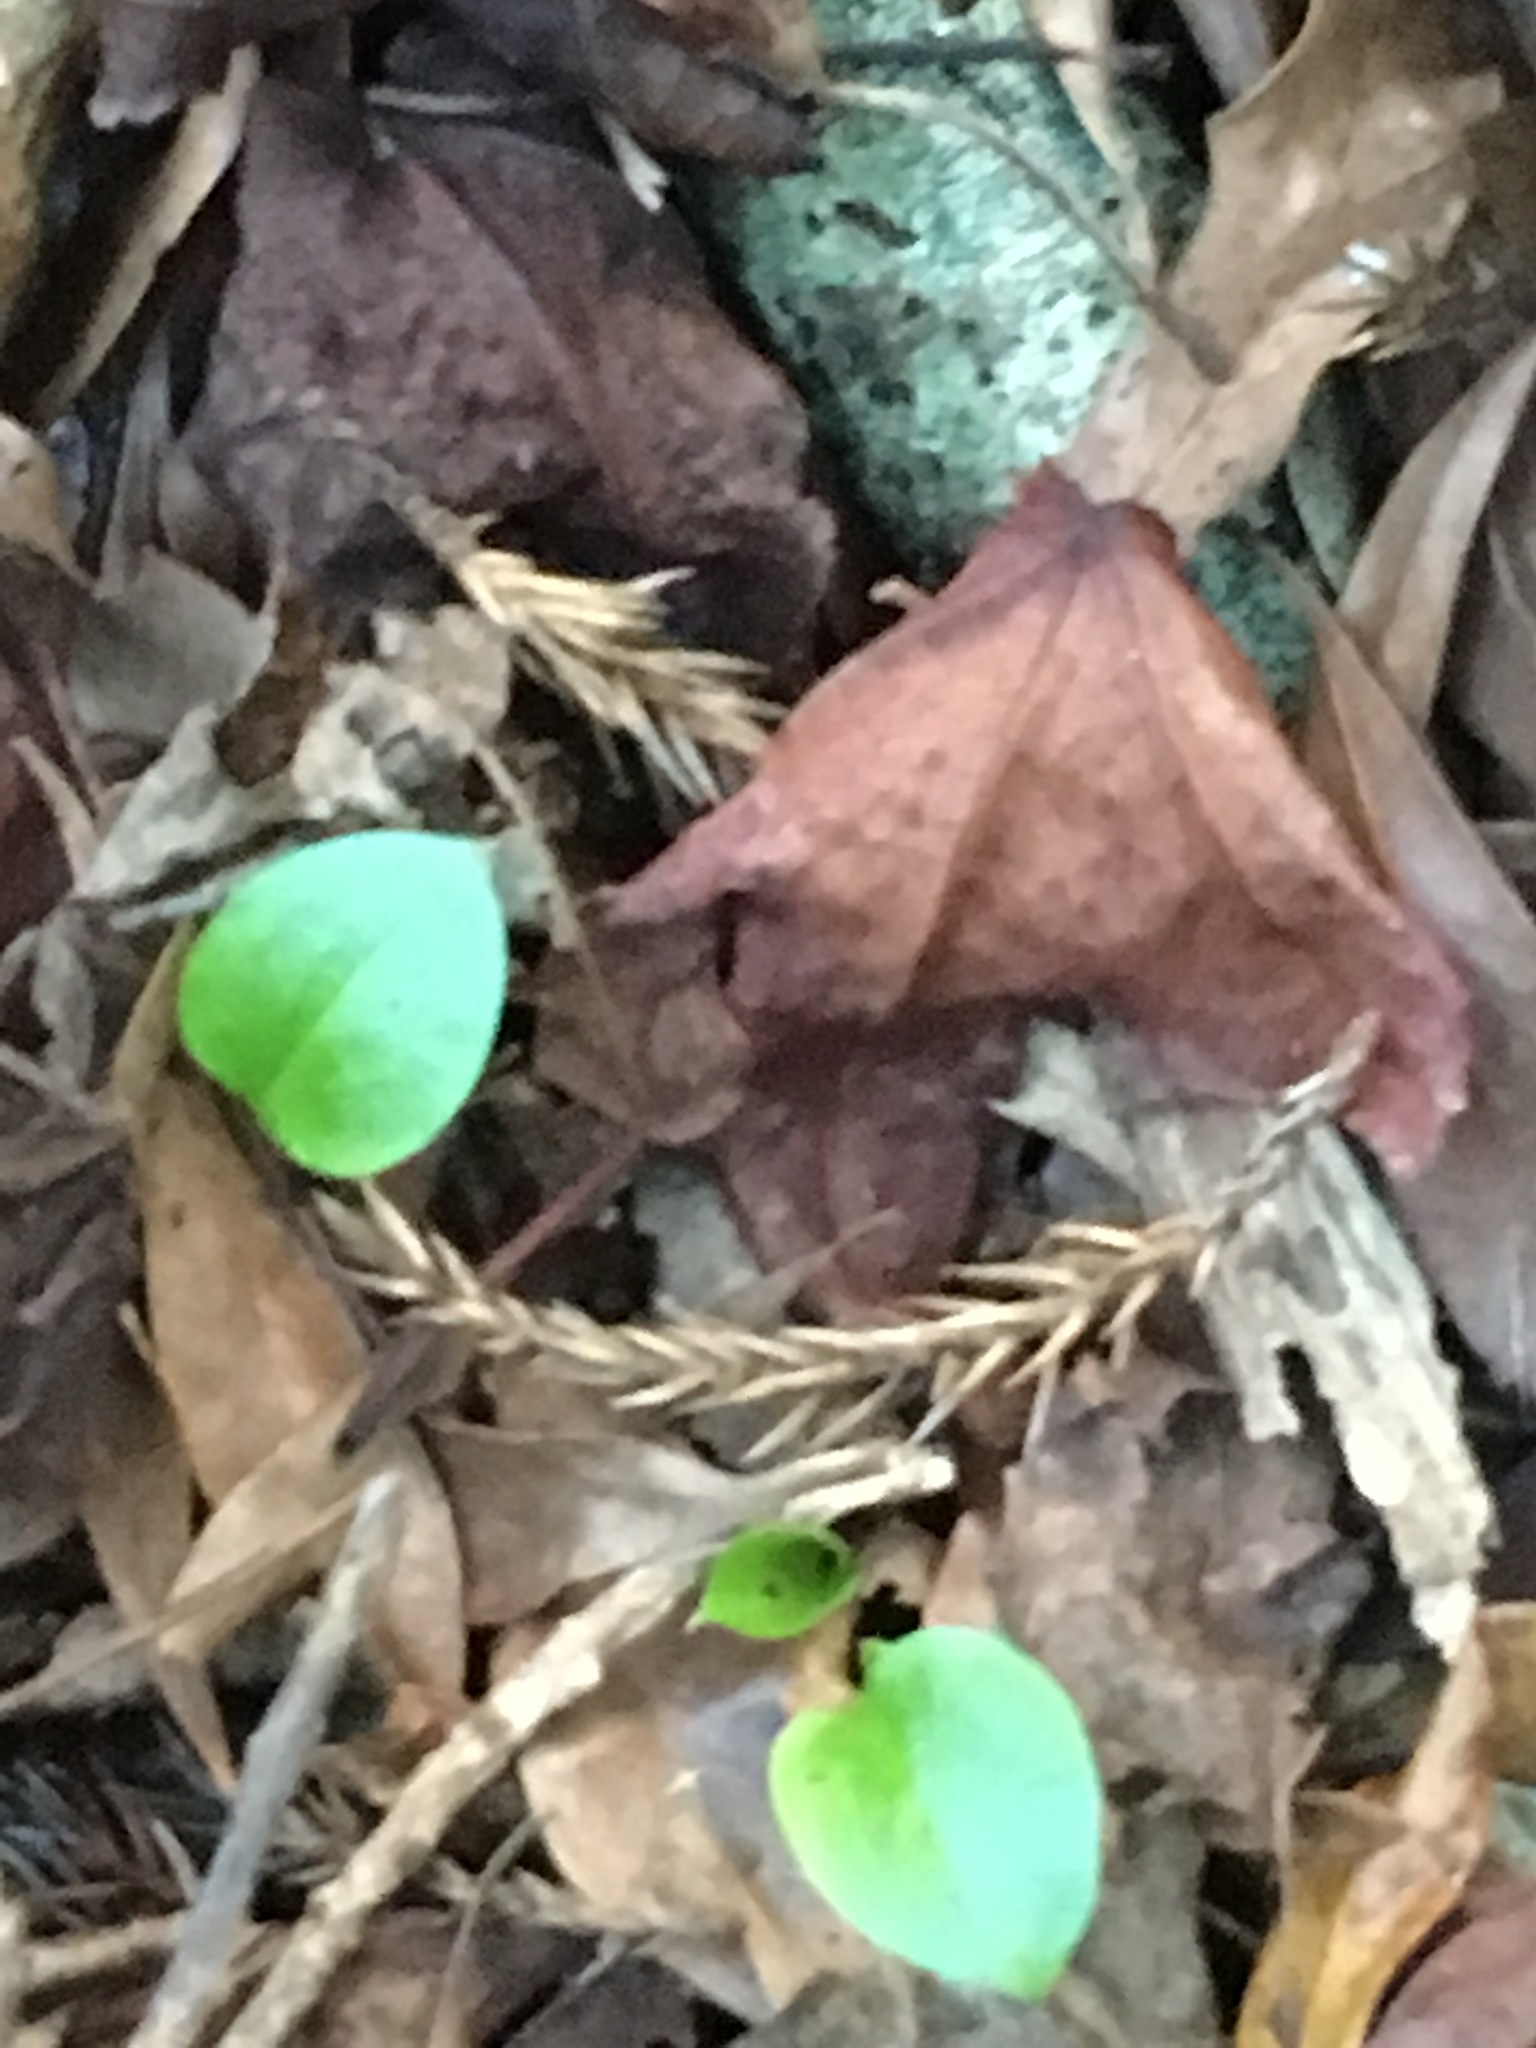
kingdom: Plantae
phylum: Tracheophyta
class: Liliopsida
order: Alismatales
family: Araceae
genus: Zantedeschia
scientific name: Zantedeschia aethiopica
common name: Altar-lily
